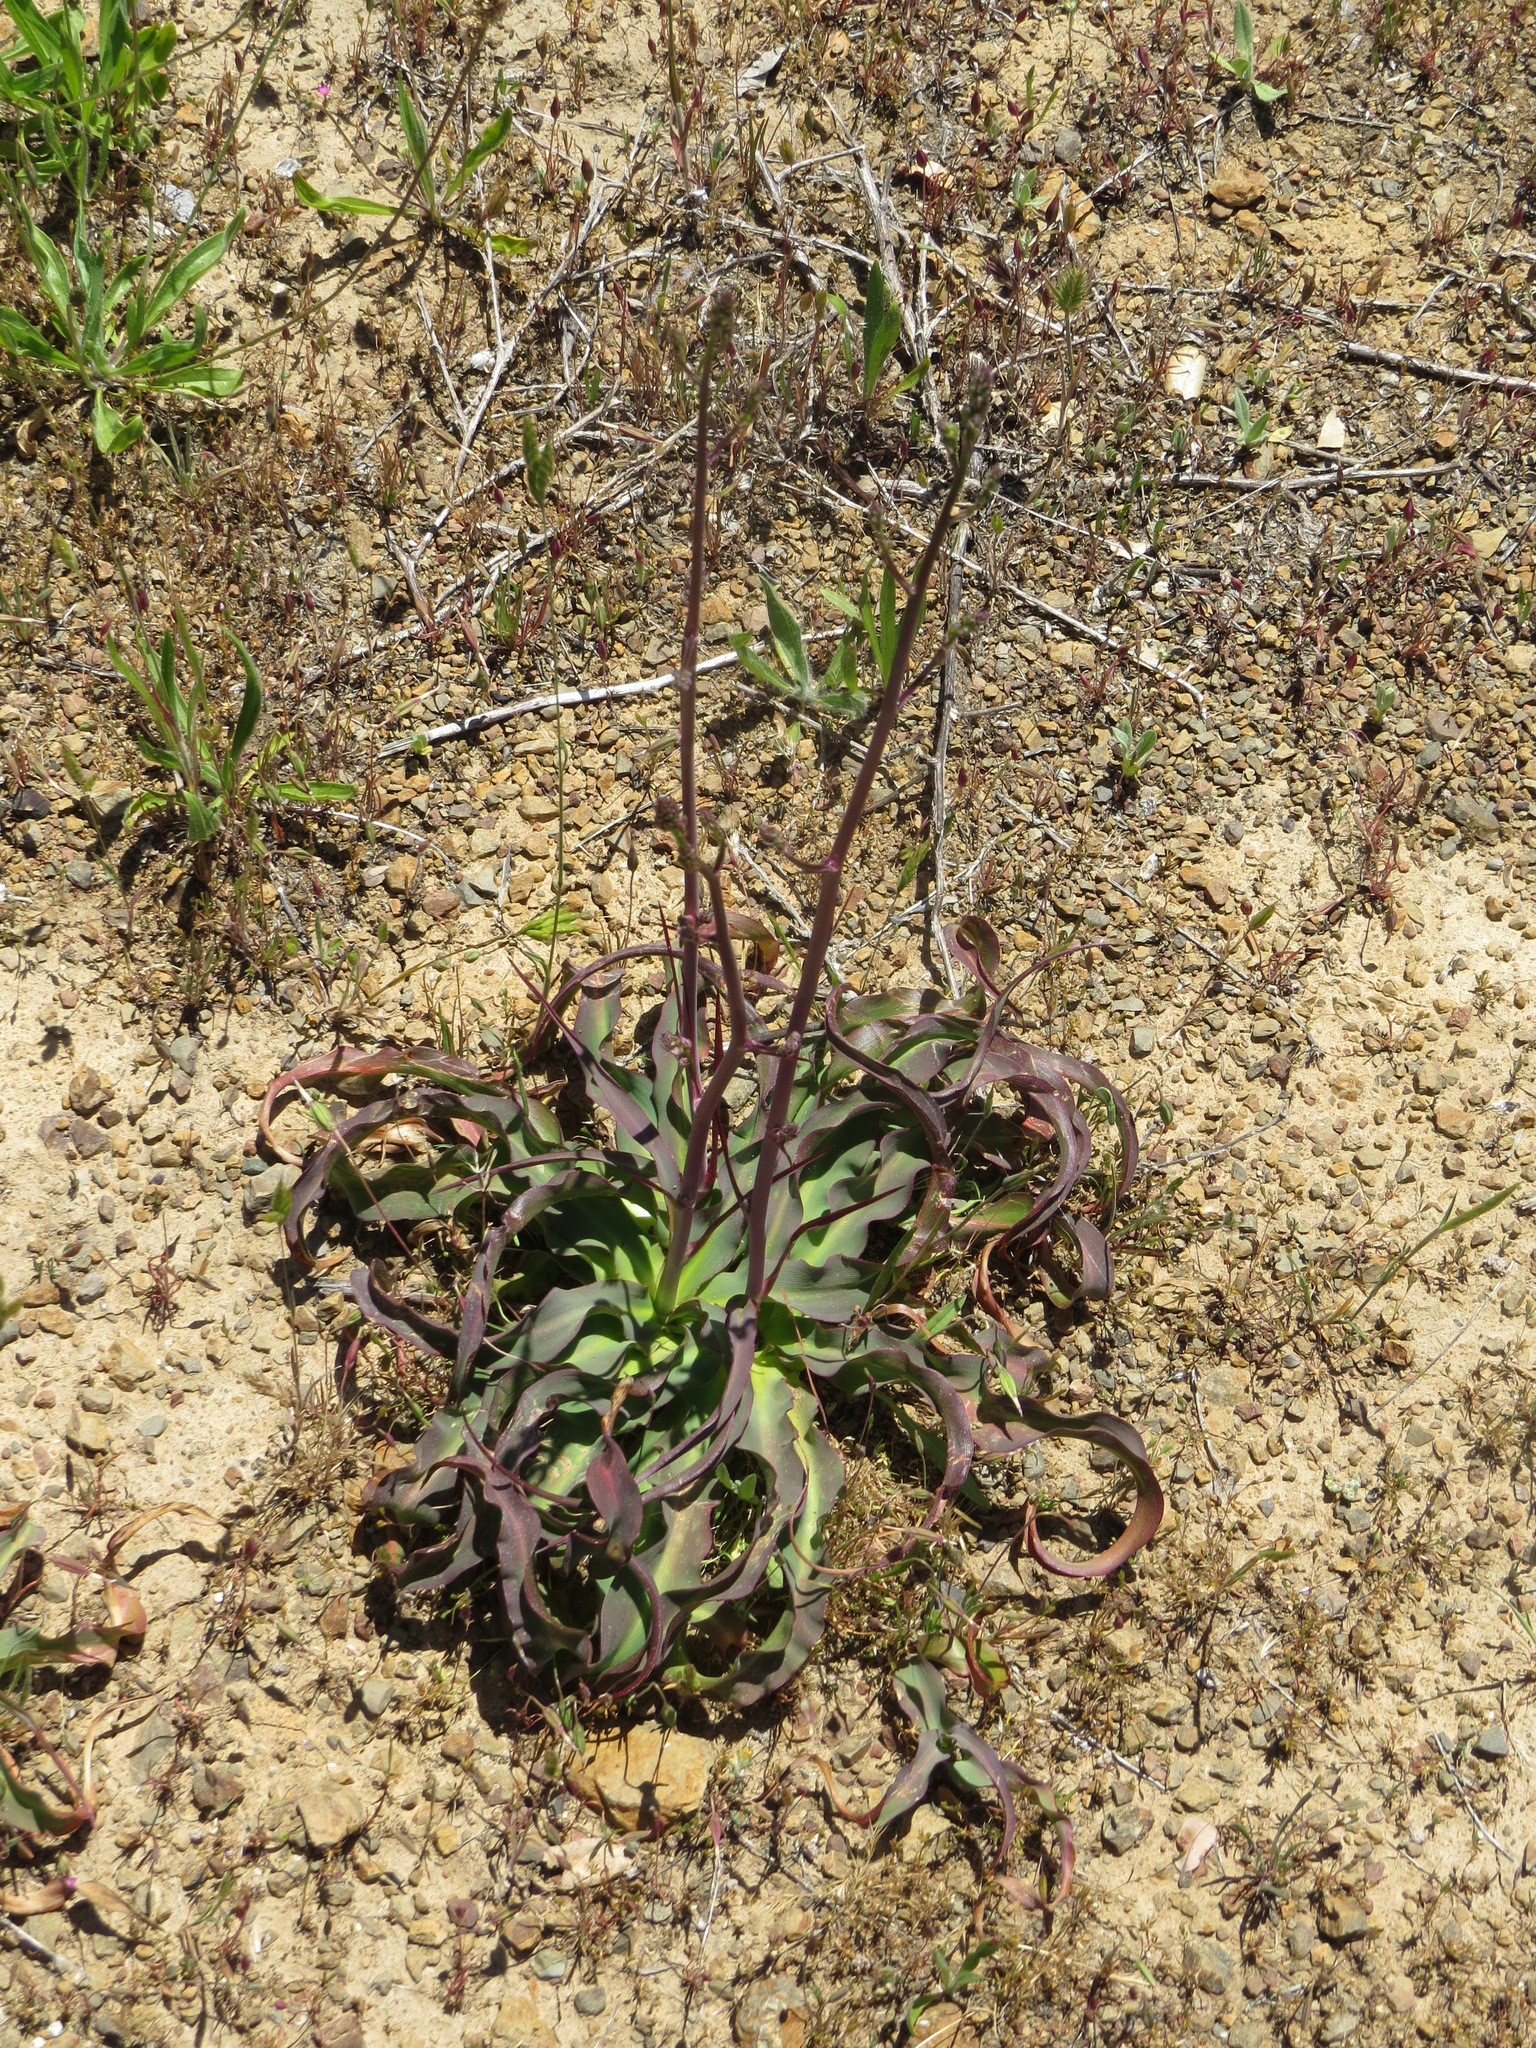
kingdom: Plantae
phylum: Tracheophyta
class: Liliopsida
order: Asparagales
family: Asparagaceae
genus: Chlorogalum
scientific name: Chlorogalum pomeridianum
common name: Amole
